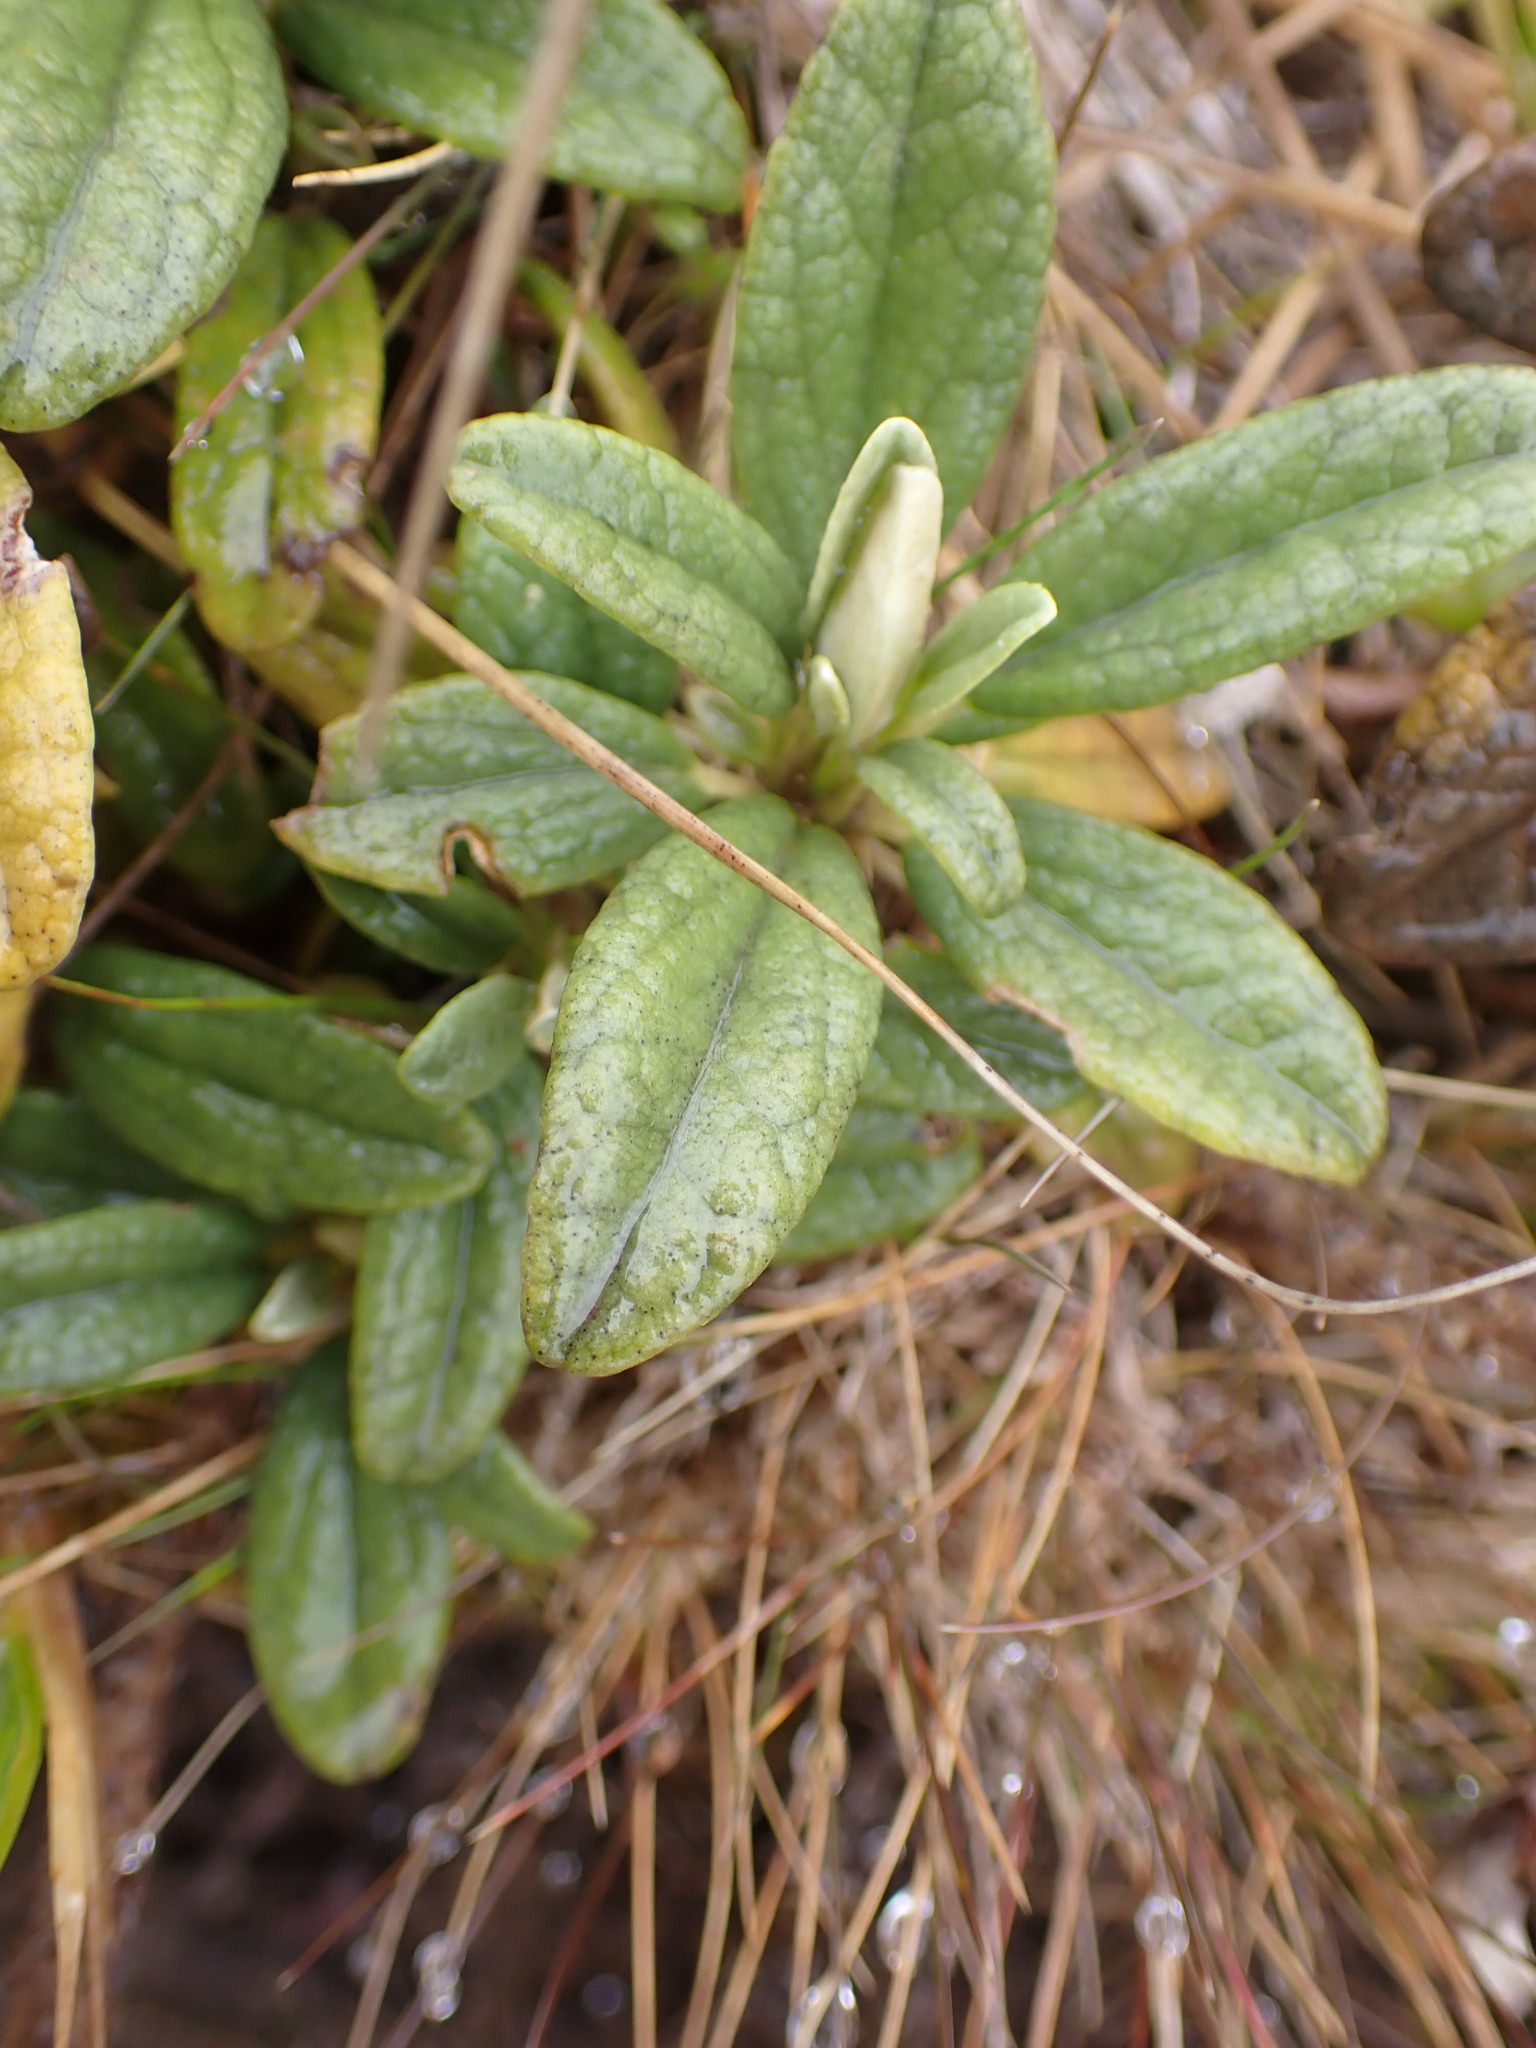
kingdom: Plantae
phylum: Tracheophyta
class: Magnoliopsida
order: Asterales
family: Asteraceae
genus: Brachyglottis
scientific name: Brachyglottis revoluta
